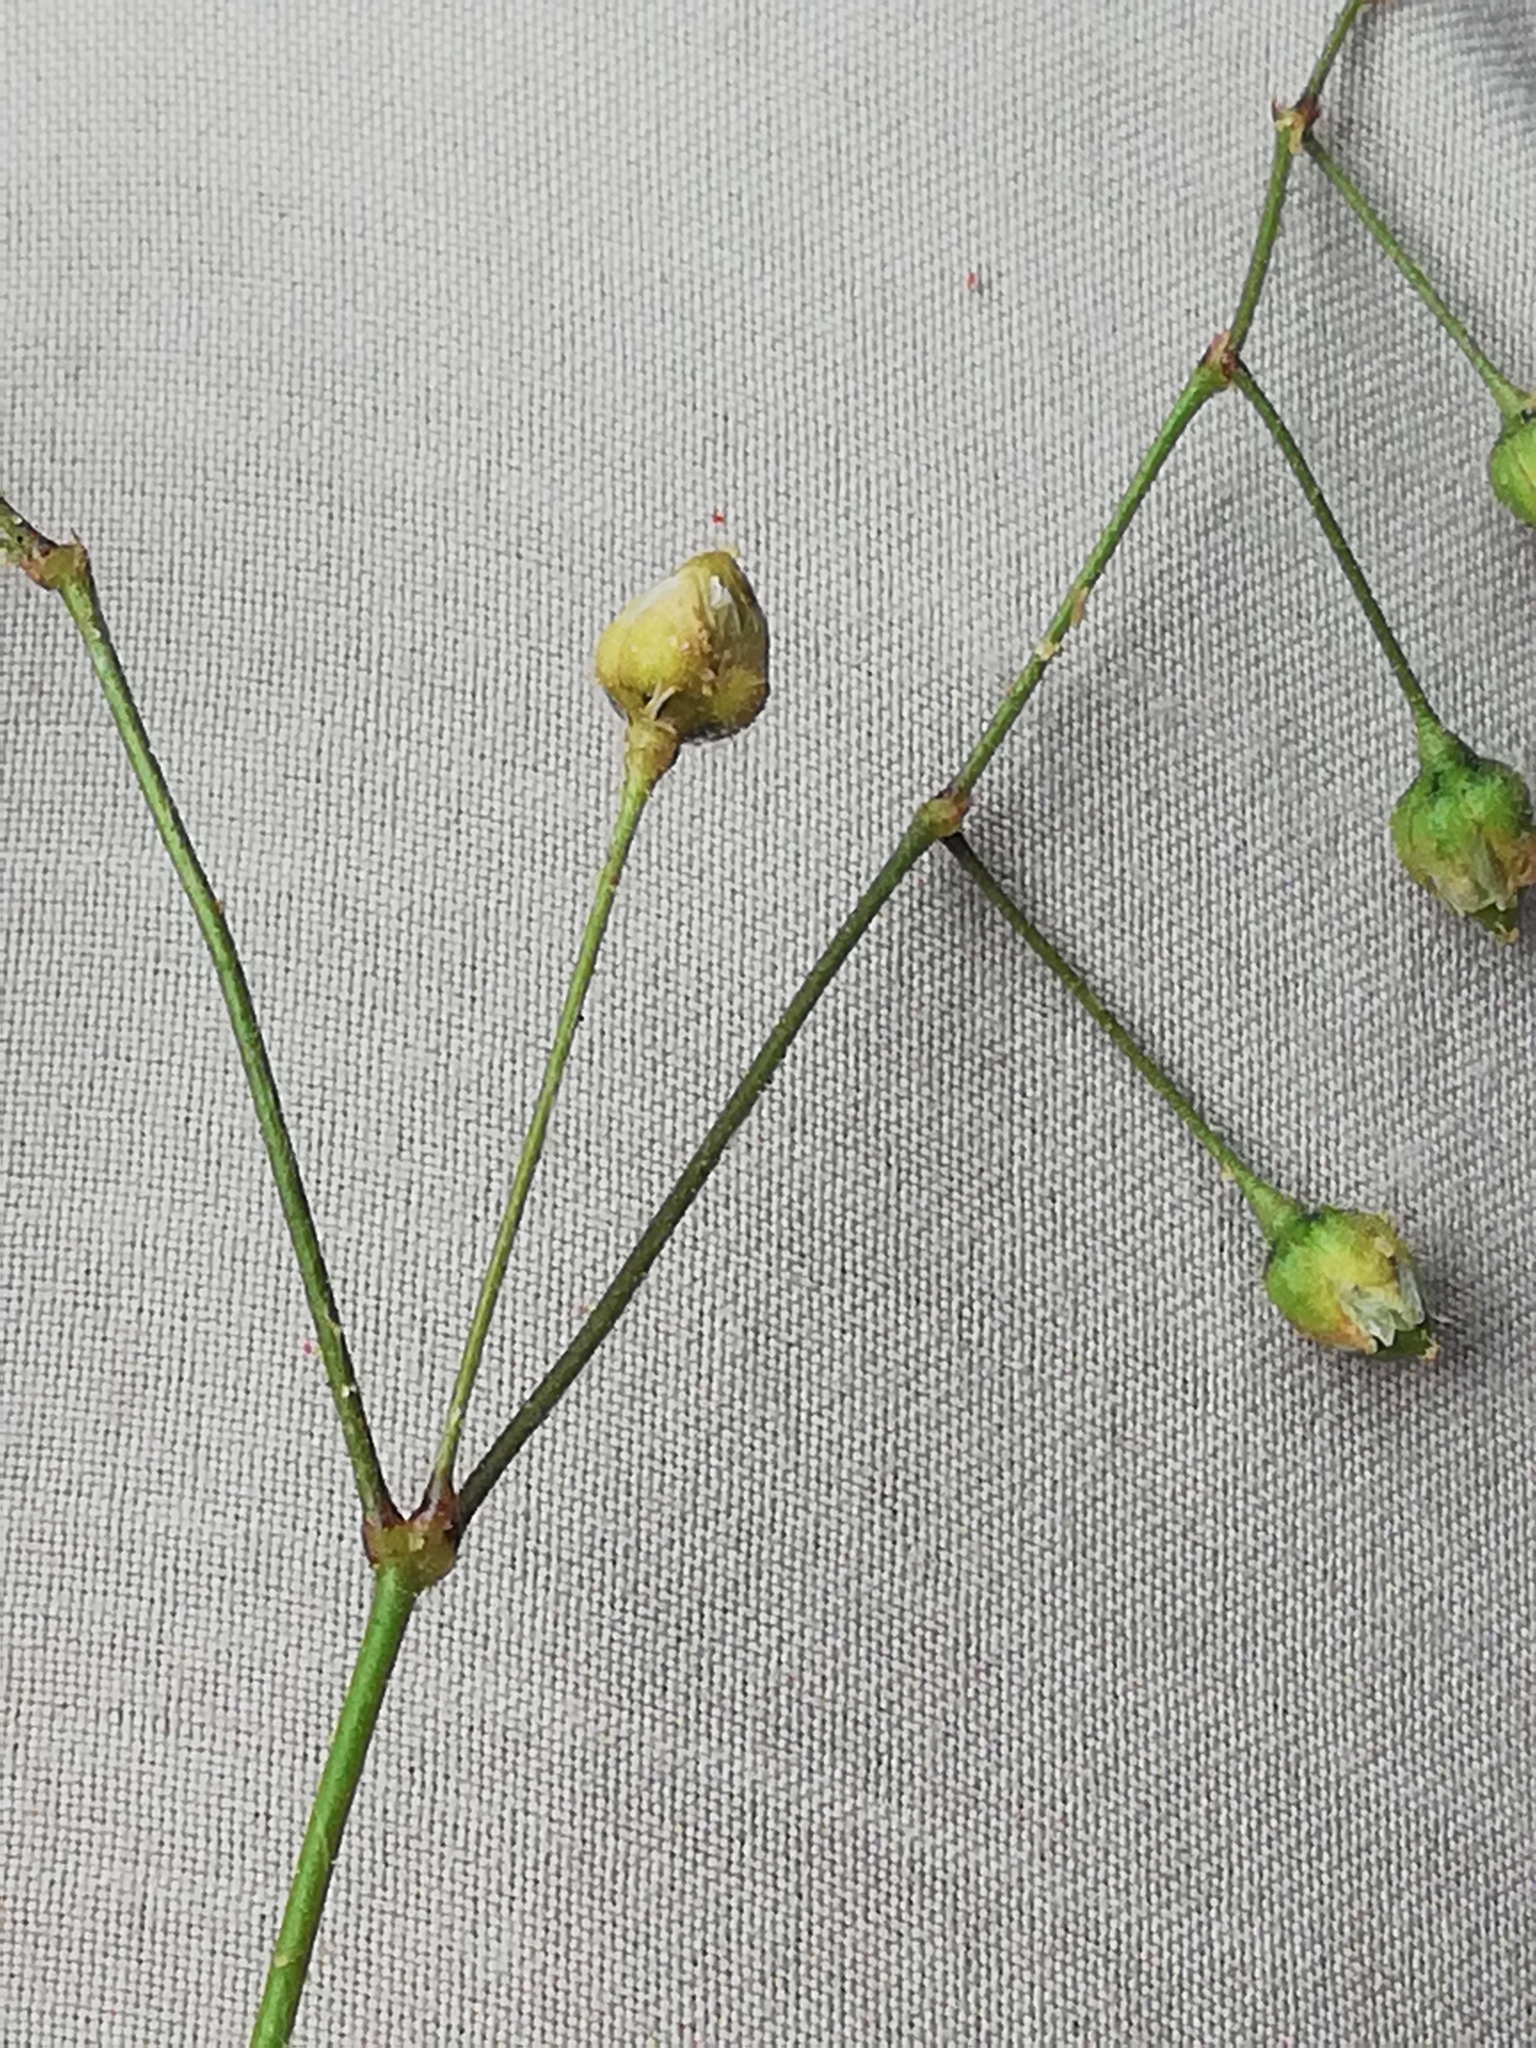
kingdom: Plantae
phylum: Tracheophyta
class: Magnoliopsida
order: Caryophyllales
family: Caryophyllaceae
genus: Spergula
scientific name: Spergula arvensis
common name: Corn spurrey
